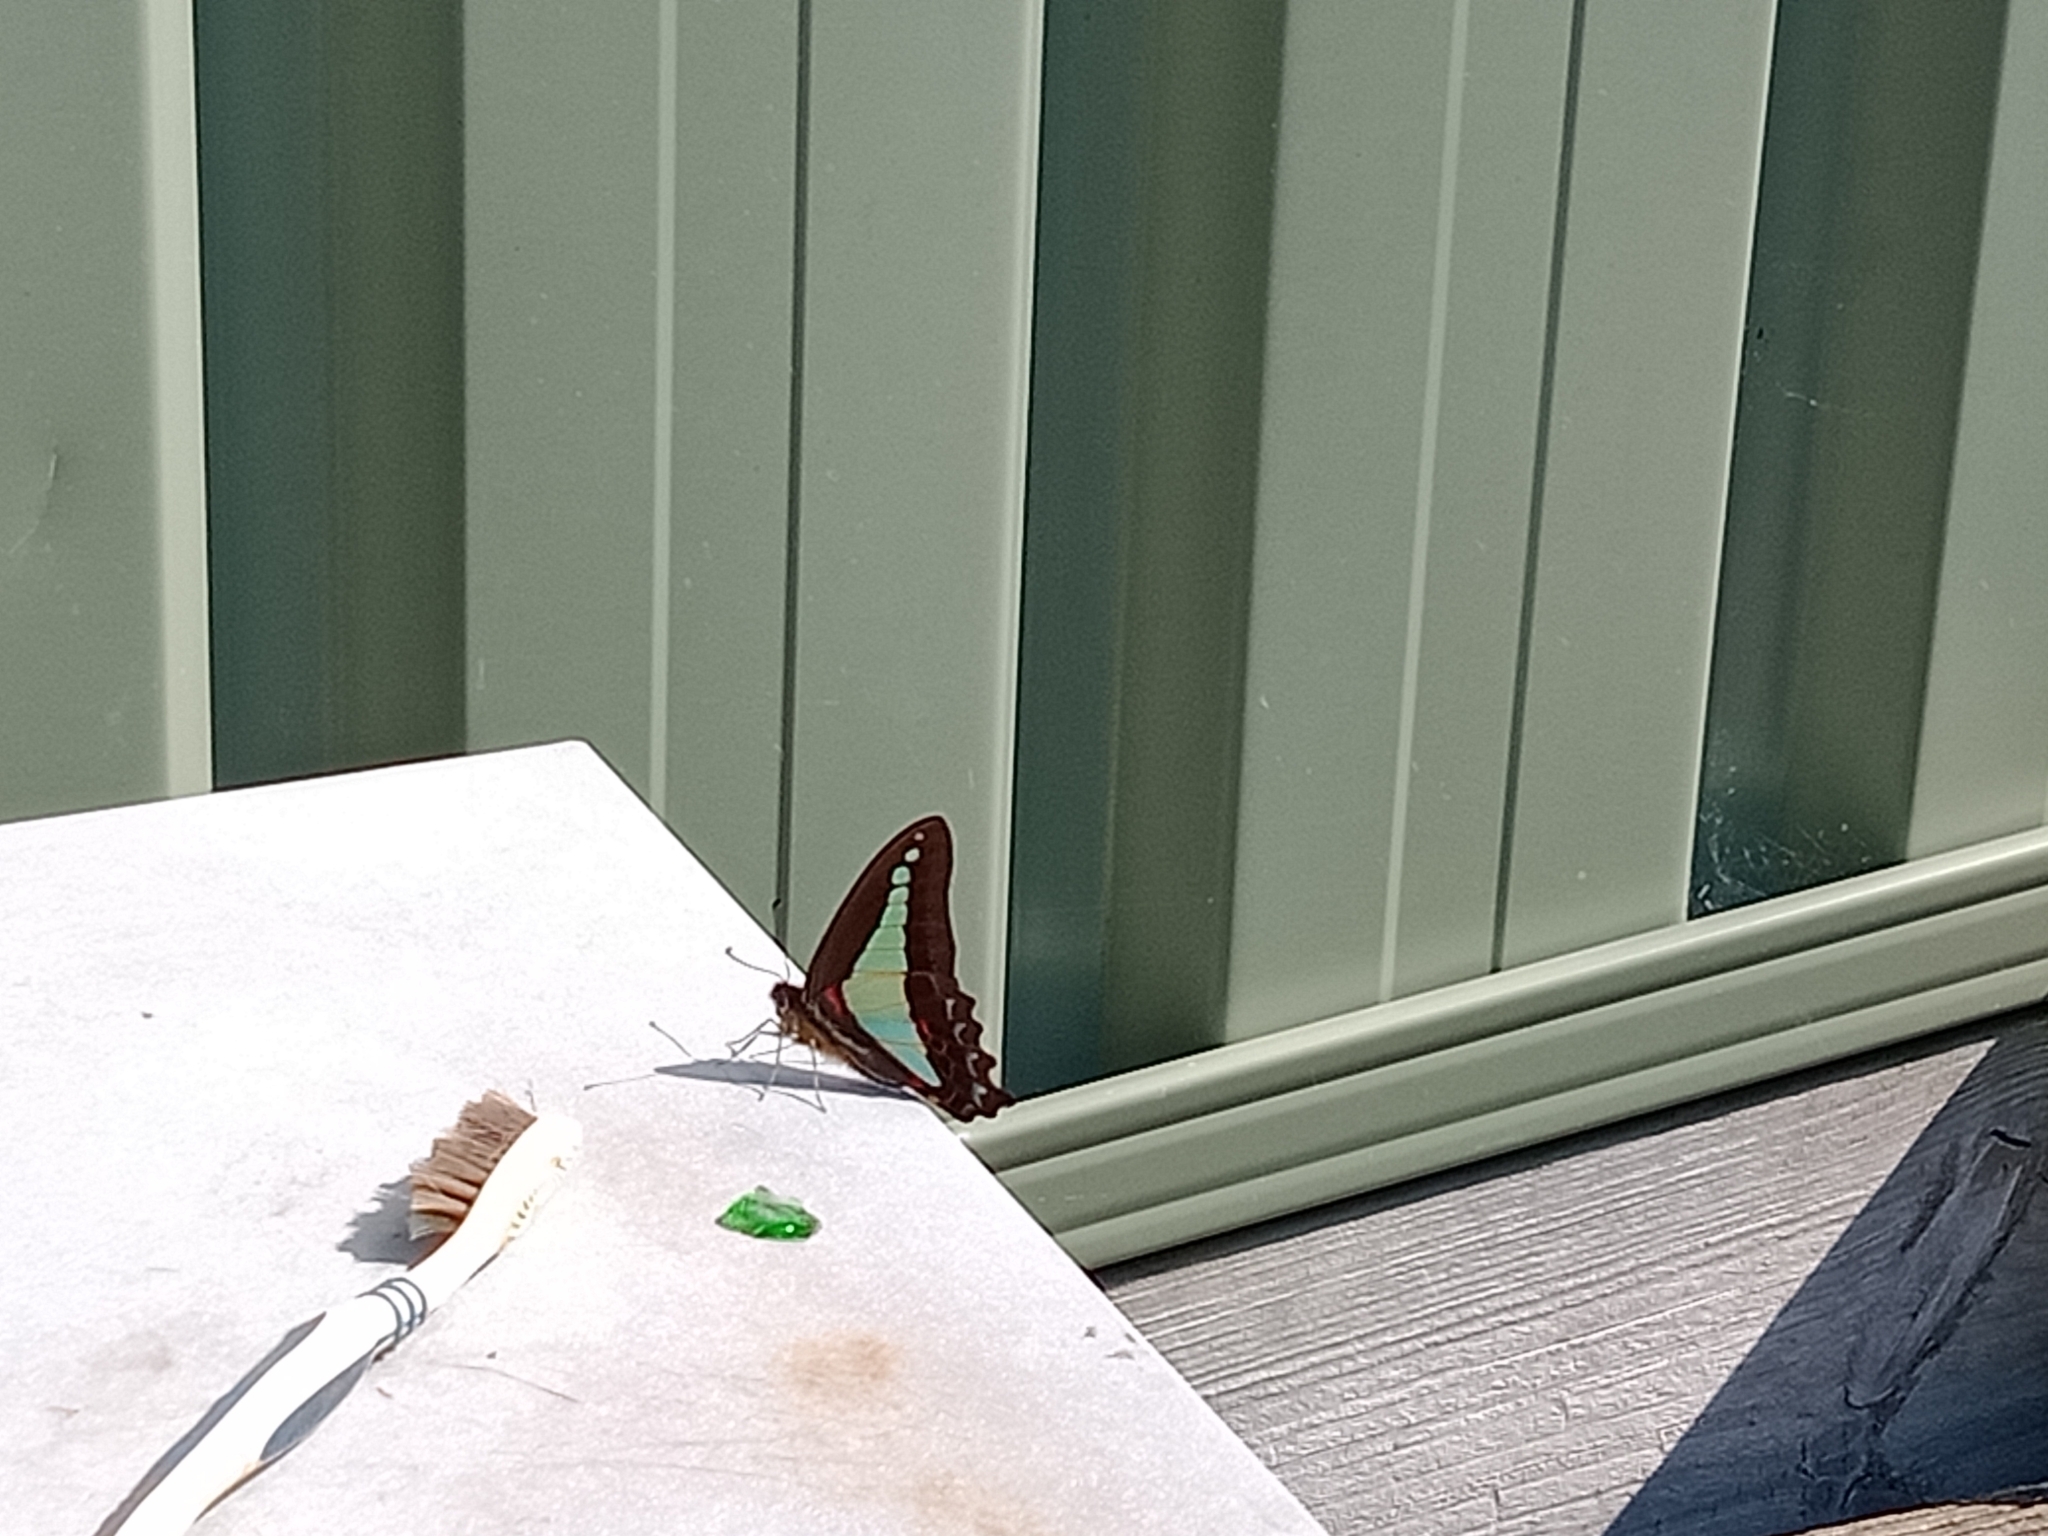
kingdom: Animalia
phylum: Arthropoda
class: Insecta
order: Lepidoptera
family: Papilionidae
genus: Graphium
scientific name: Graphium
